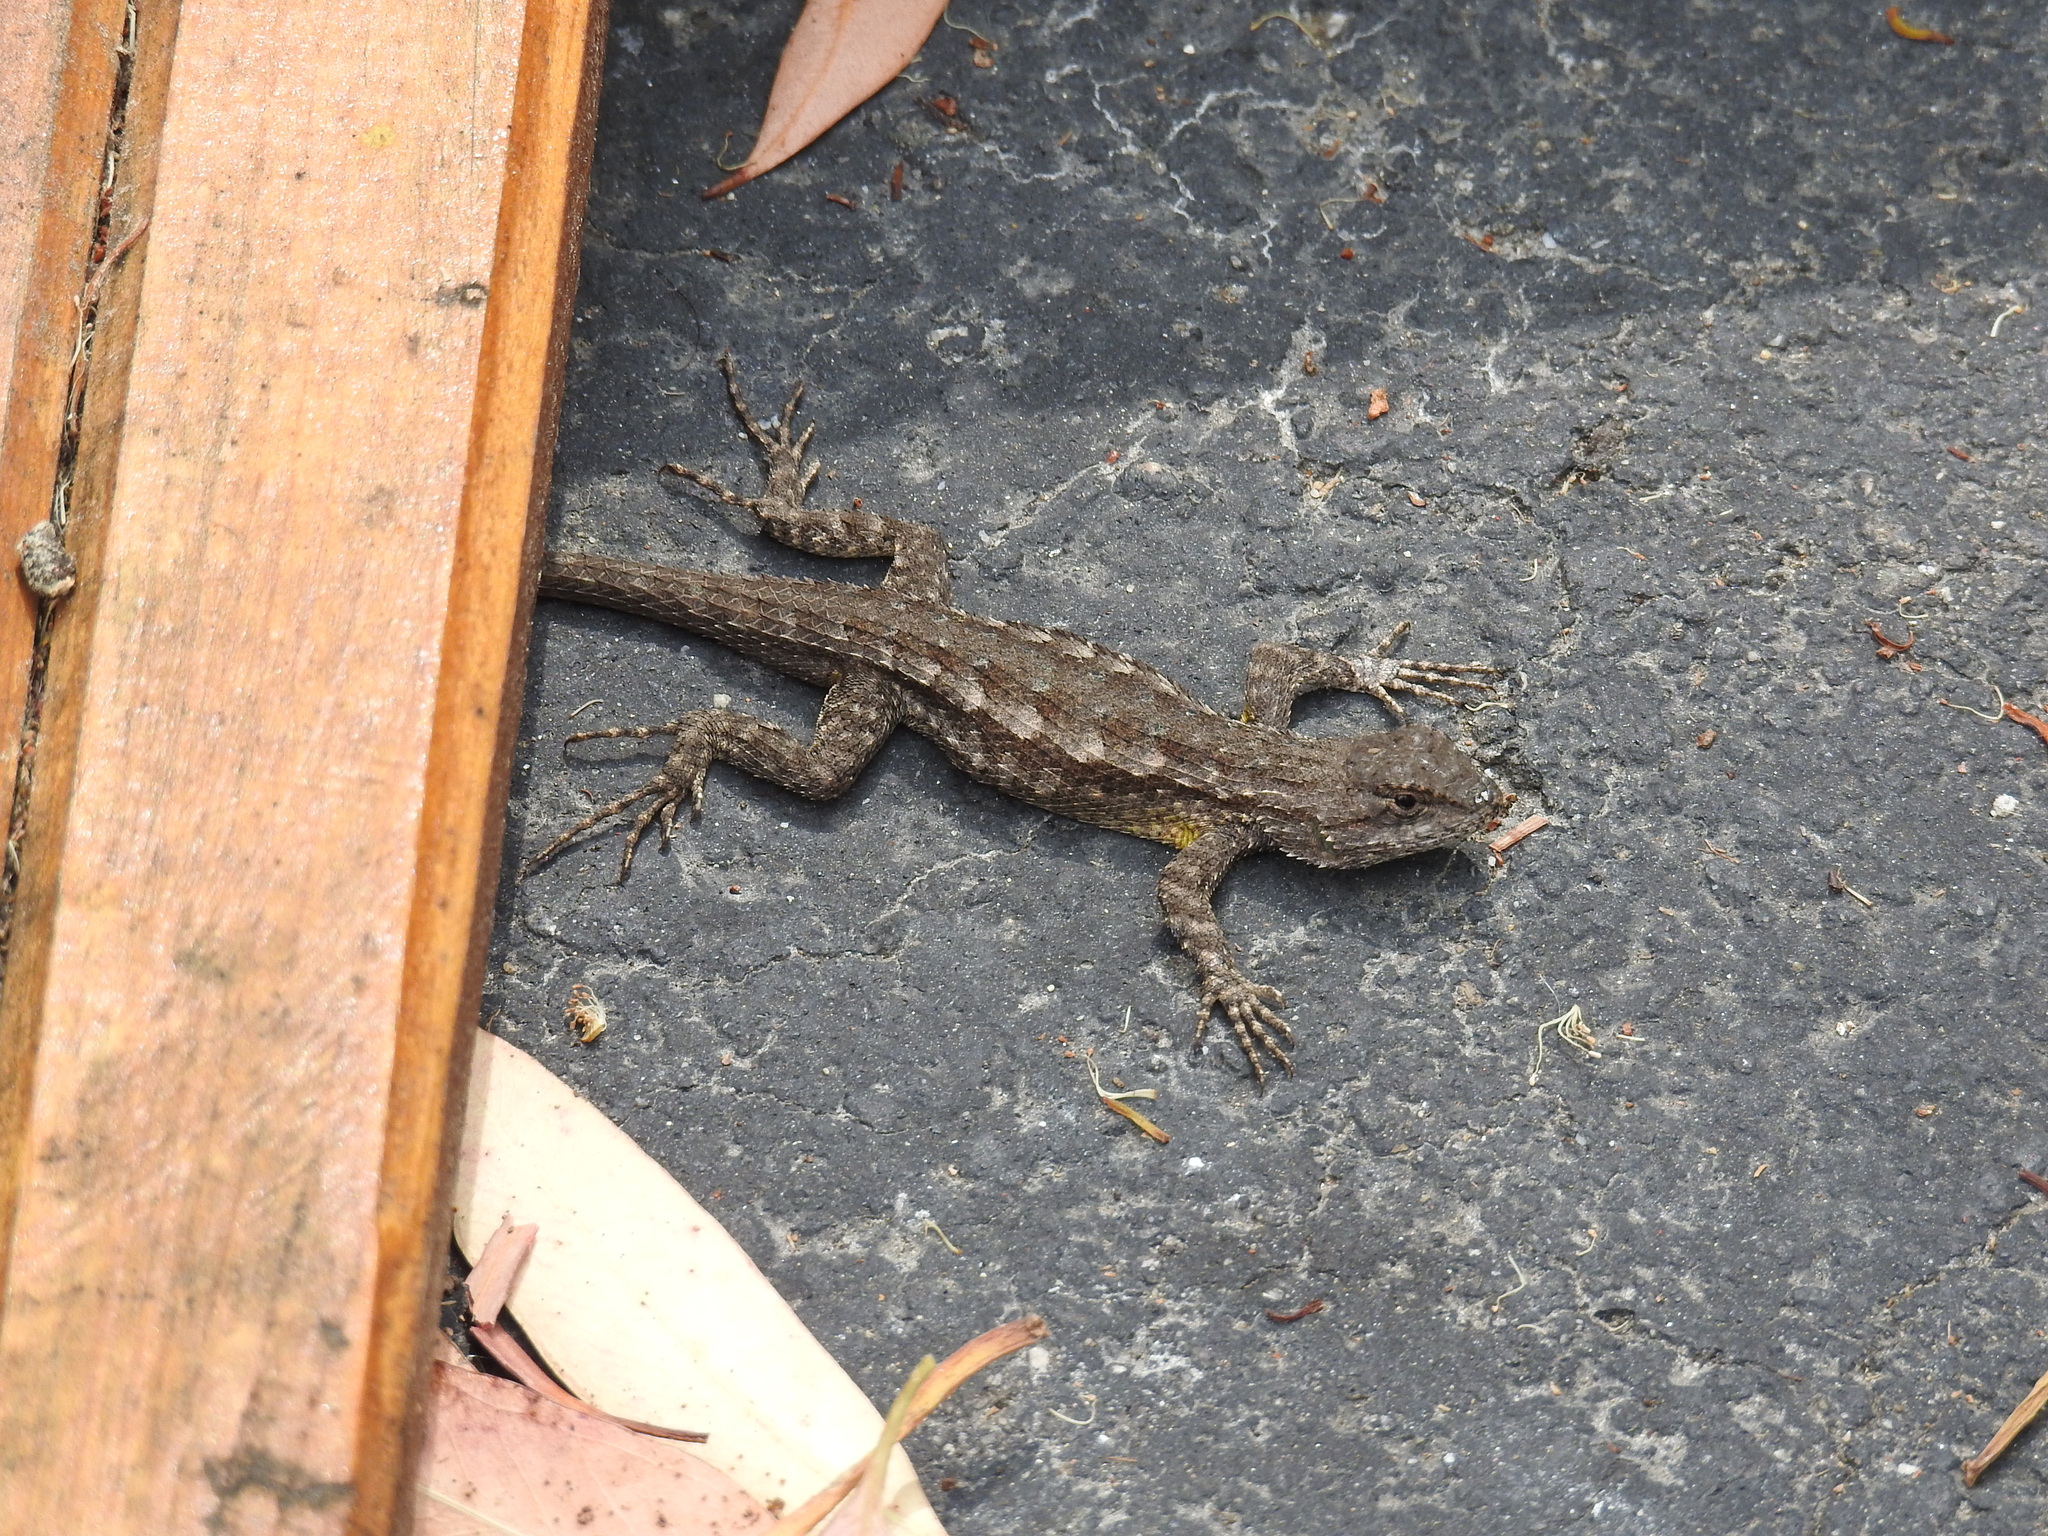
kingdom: Animalia
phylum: Chordata
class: Squamata
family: Phrynosomatidae
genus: Sceloporus
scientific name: Sceloporus occidentalis
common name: Western fence lizard
